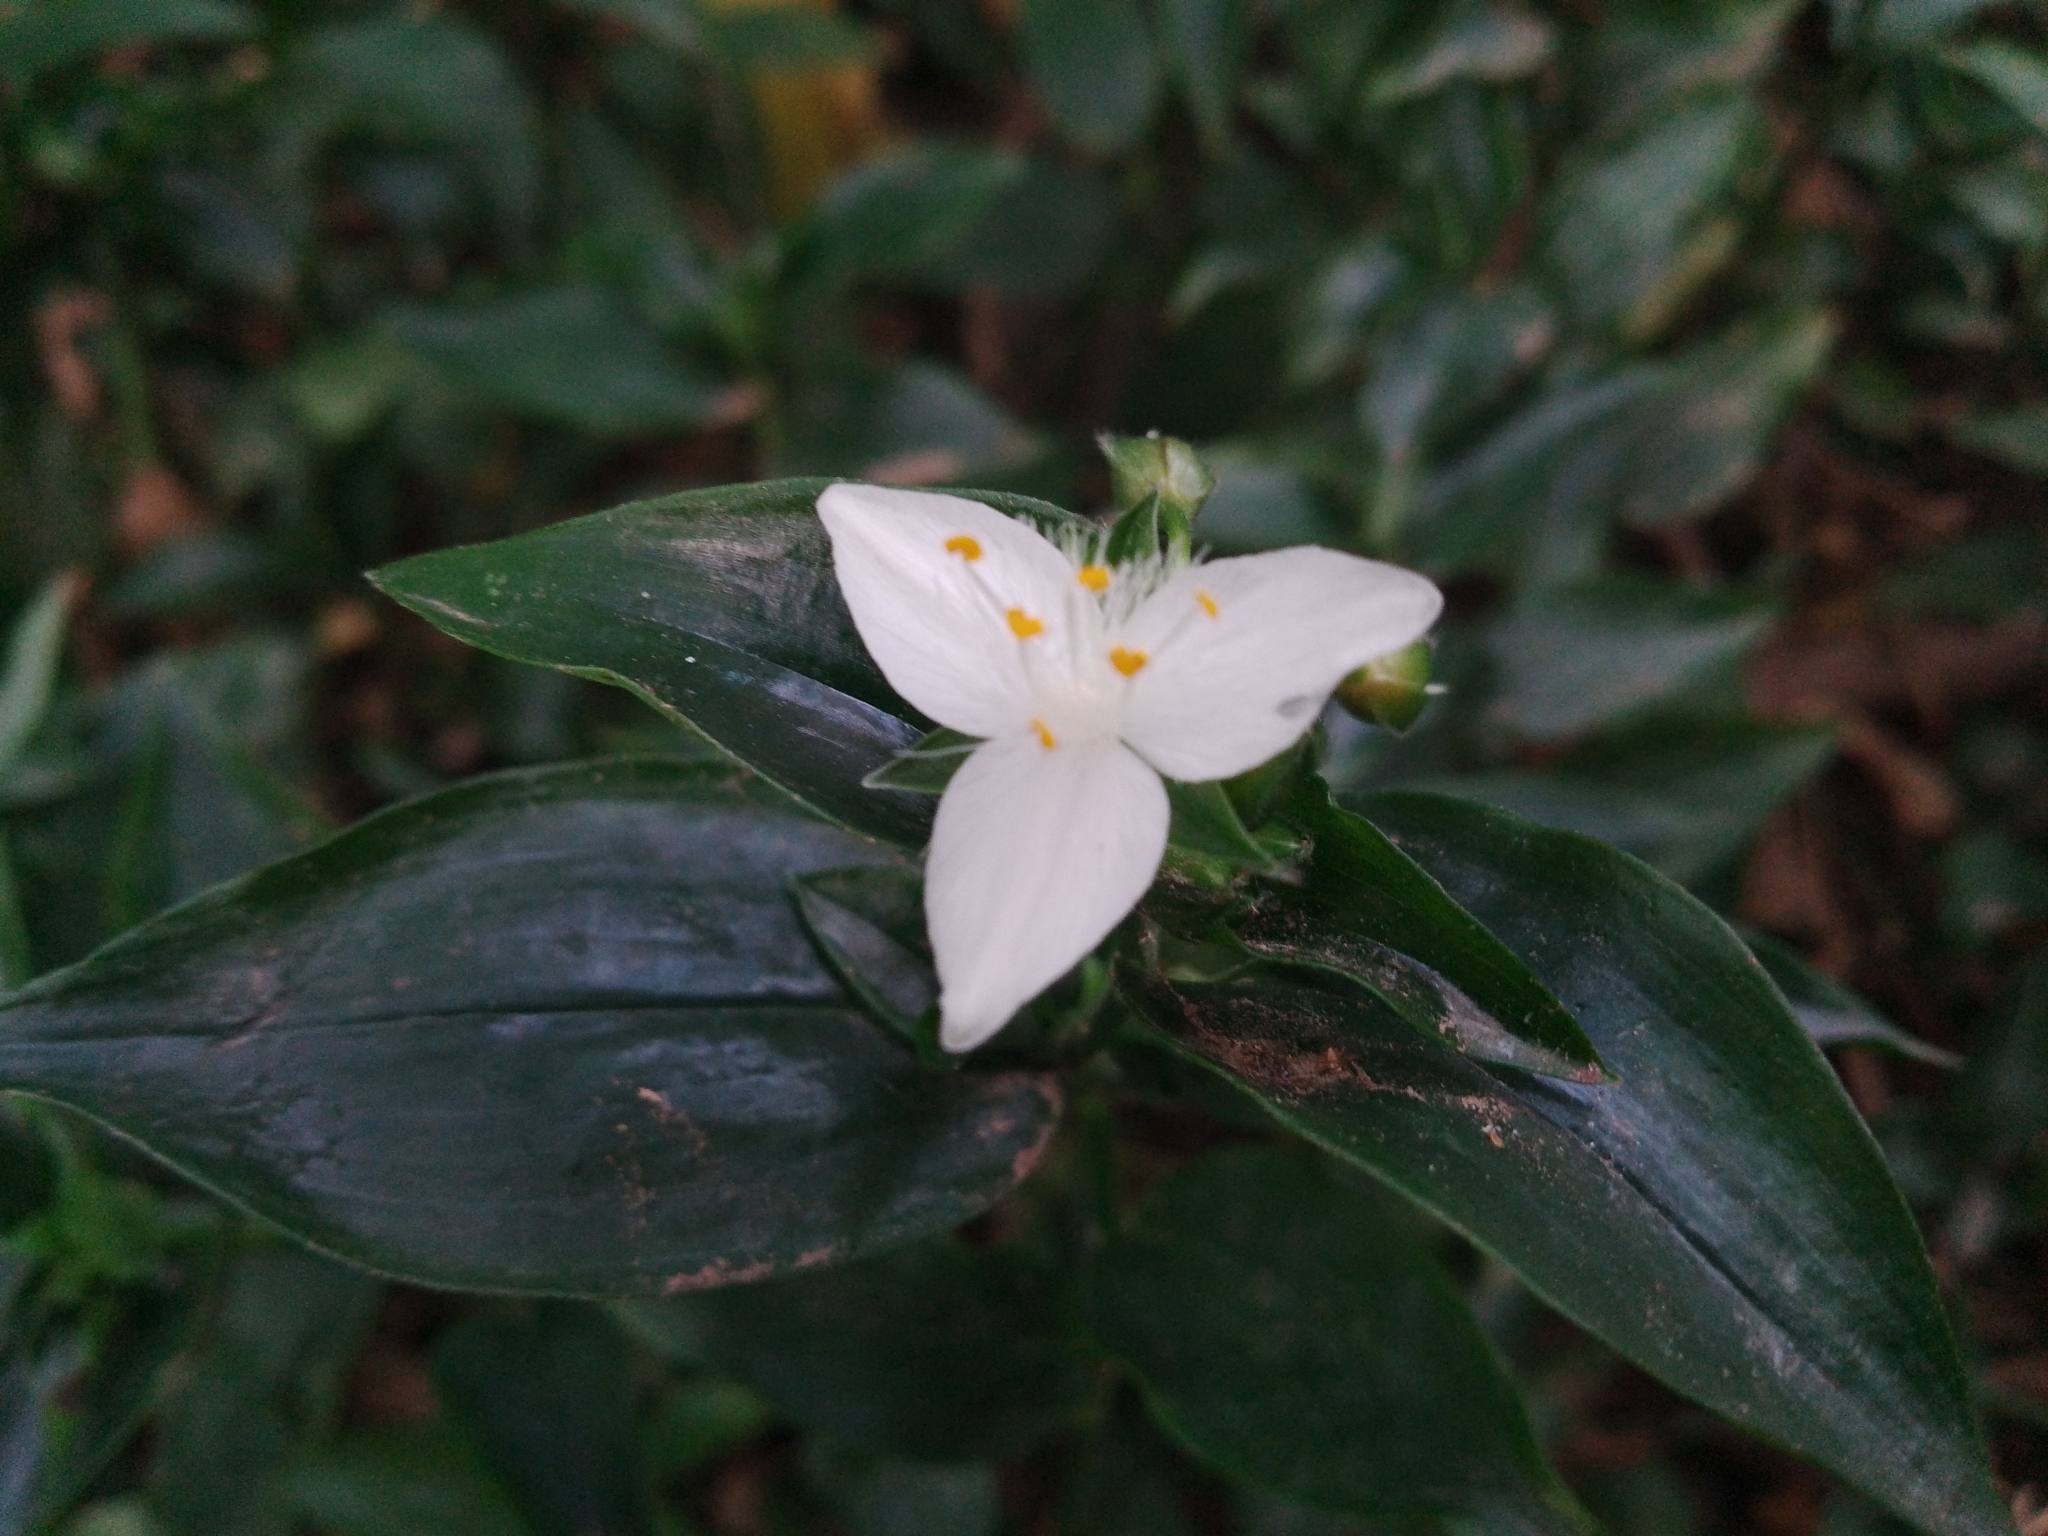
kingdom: Plantae
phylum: Tracheophyta
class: Liliopsida
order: Commelinales
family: Commelinaceae
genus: Tradescantia
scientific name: Tradescantia fluminensis
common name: Wandering-jew
